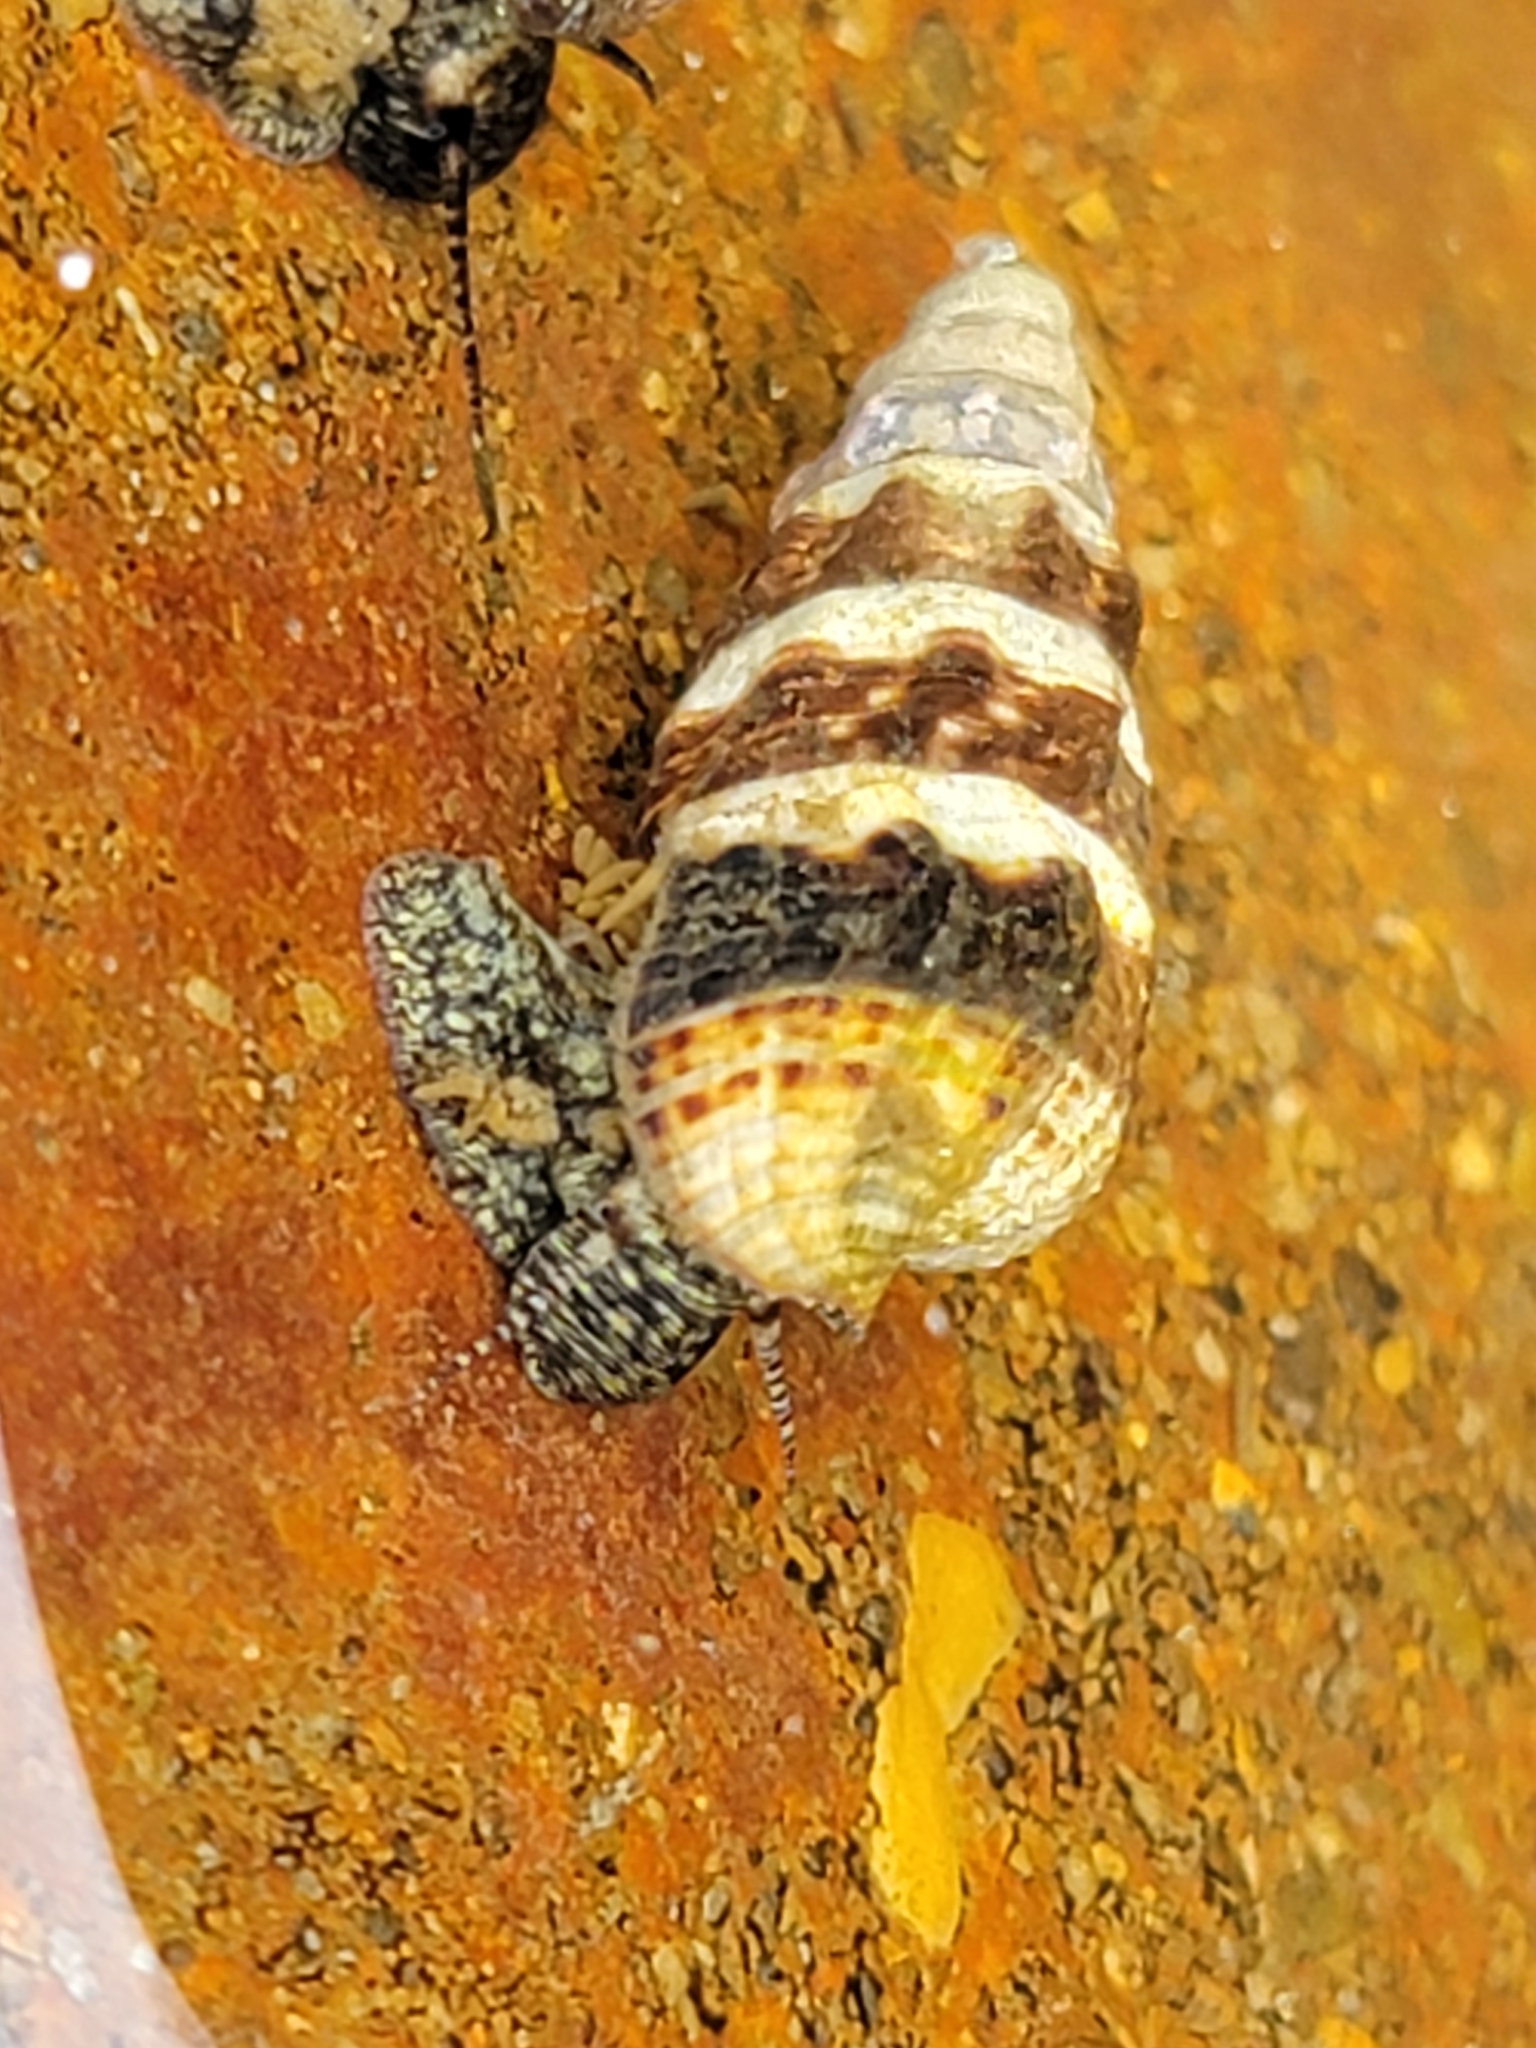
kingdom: Animalia
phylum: Mollusca
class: Gastropoda
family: Batillariidae
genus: Batillaria
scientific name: Batillaria attramentaria
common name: Japanese false cerith
